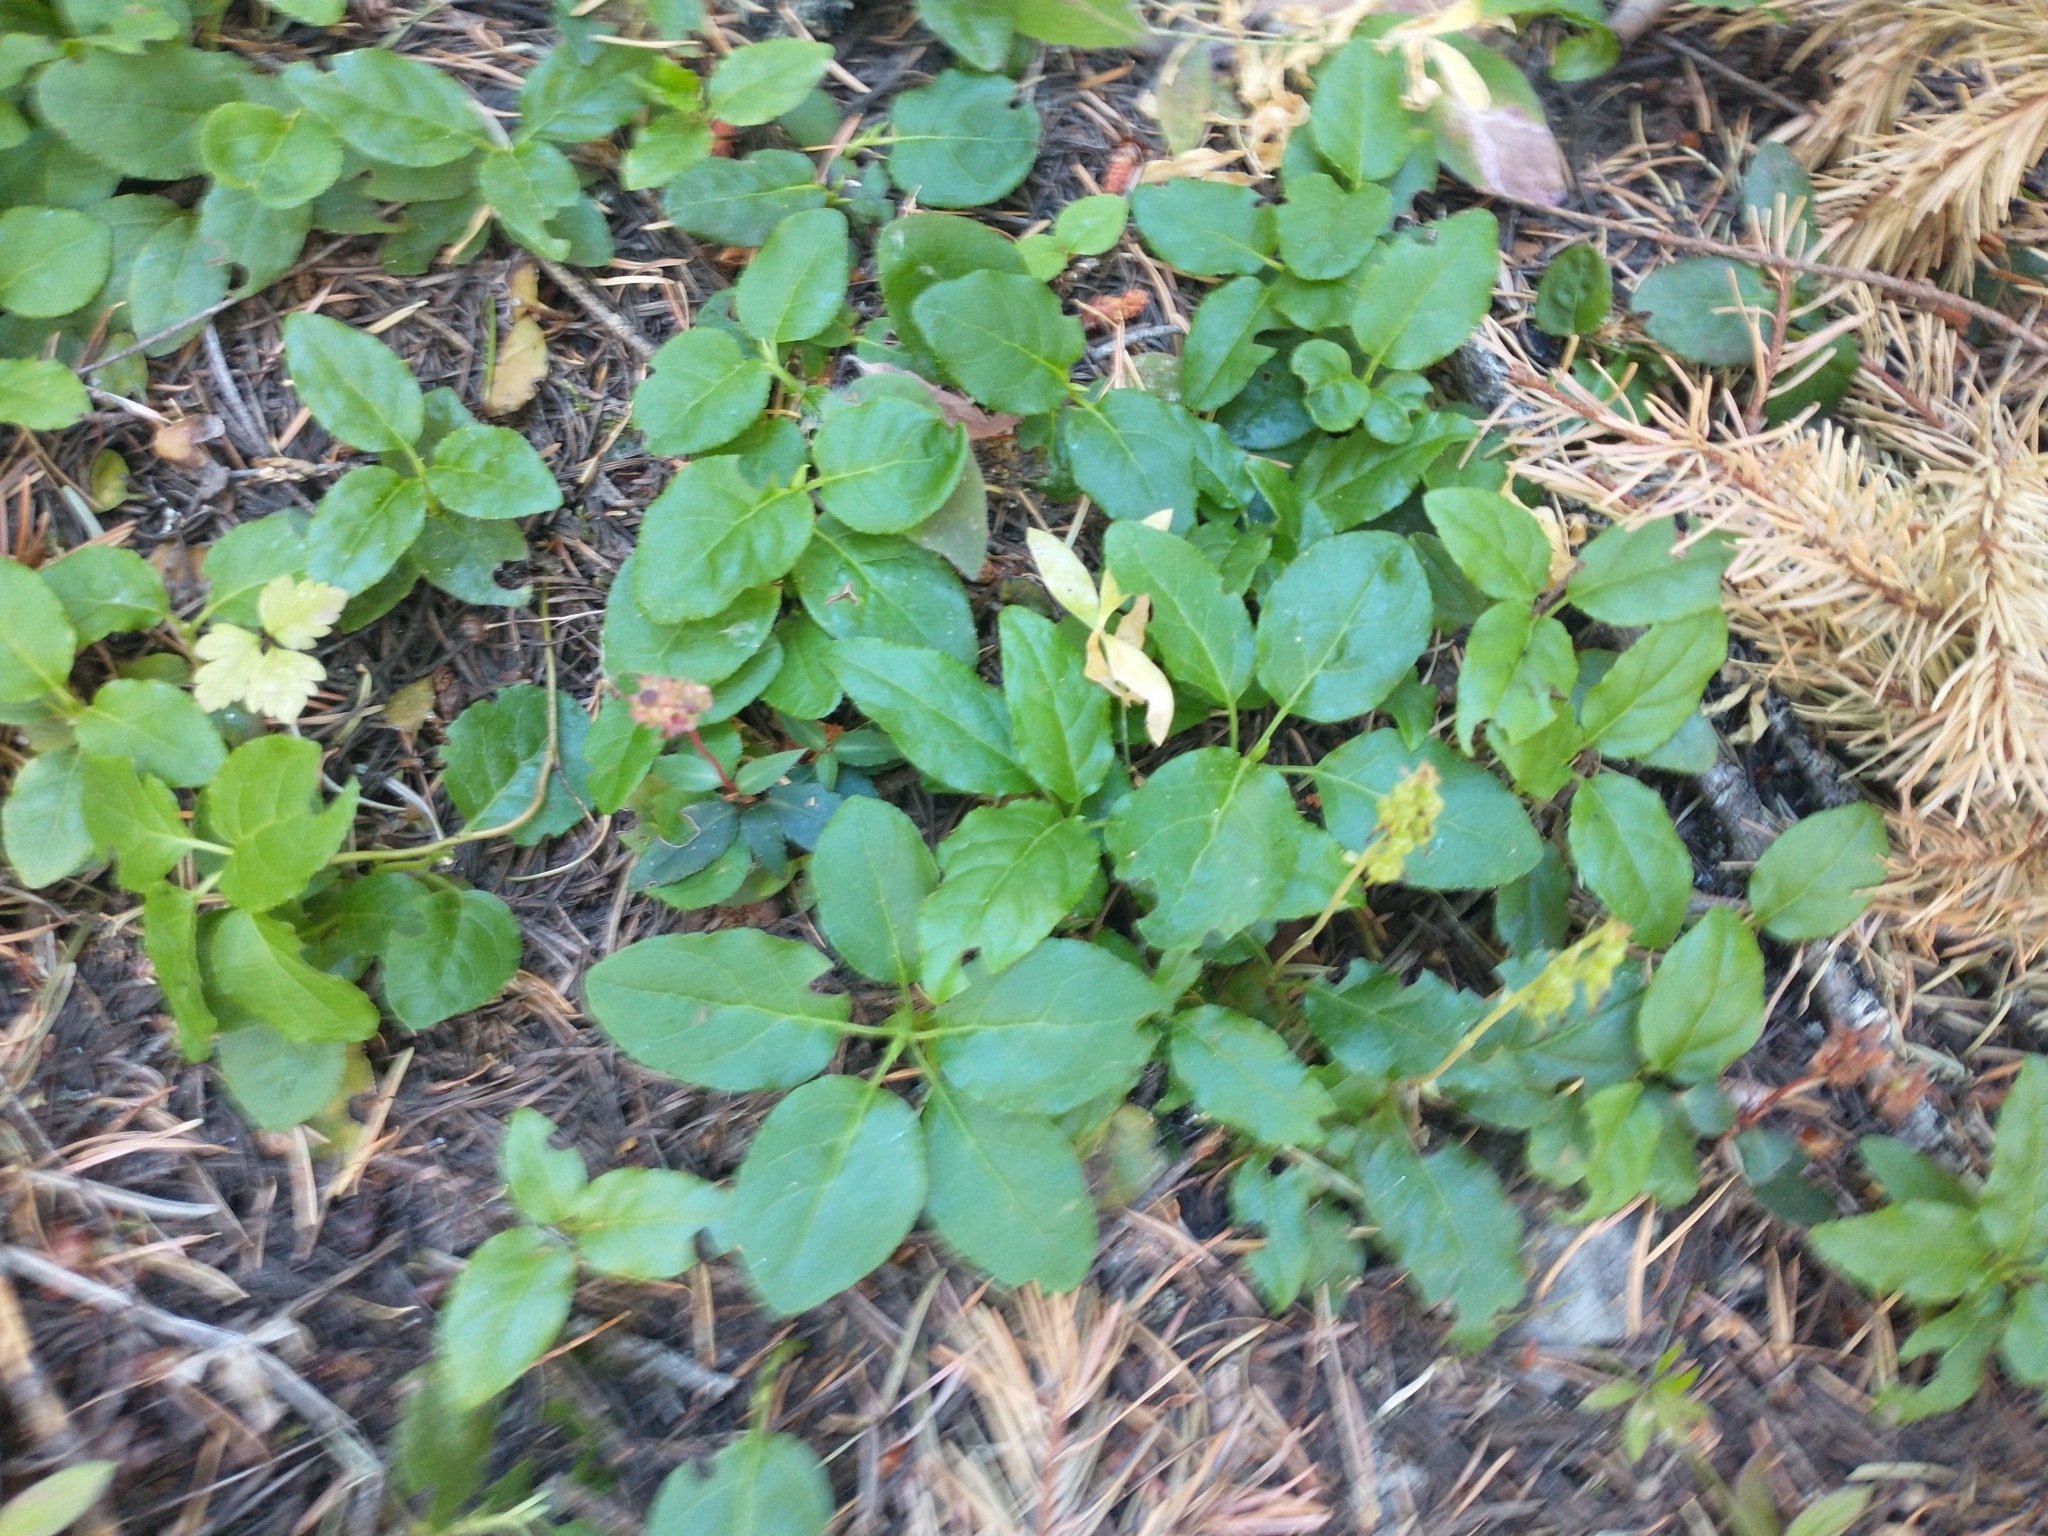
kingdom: Plantae
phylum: Tracheophyta
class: Magnoliopsida
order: Ericales
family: Ericaceae
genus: Orthilia
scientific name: Orthilia secunda
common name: One-sided orthilia
